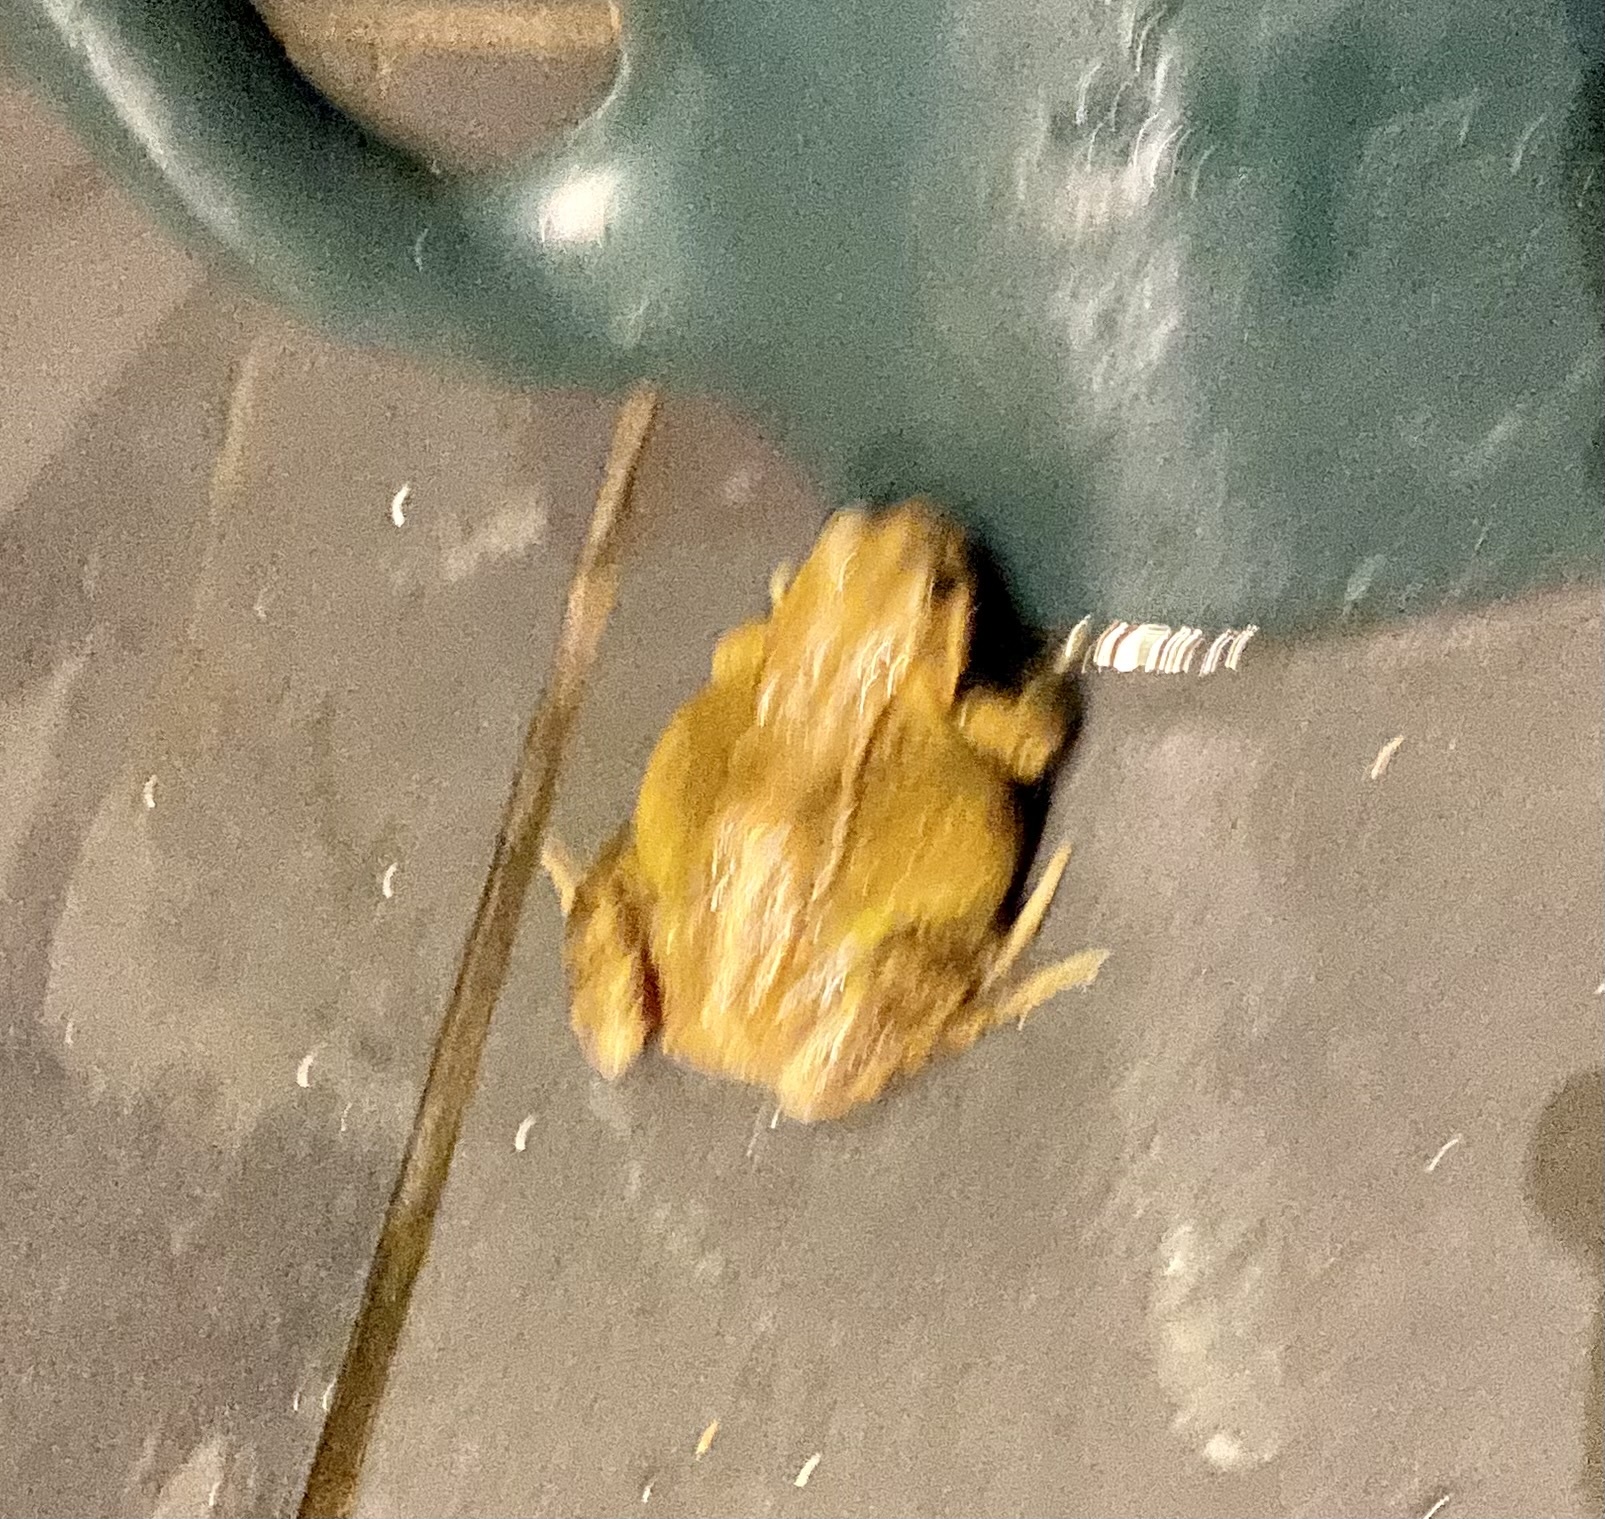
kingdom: Animalia
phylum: Chordata
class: Amphibia
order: Anura
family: Ranidae
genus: Rana
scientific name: Rana temporaria
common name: Common frog
